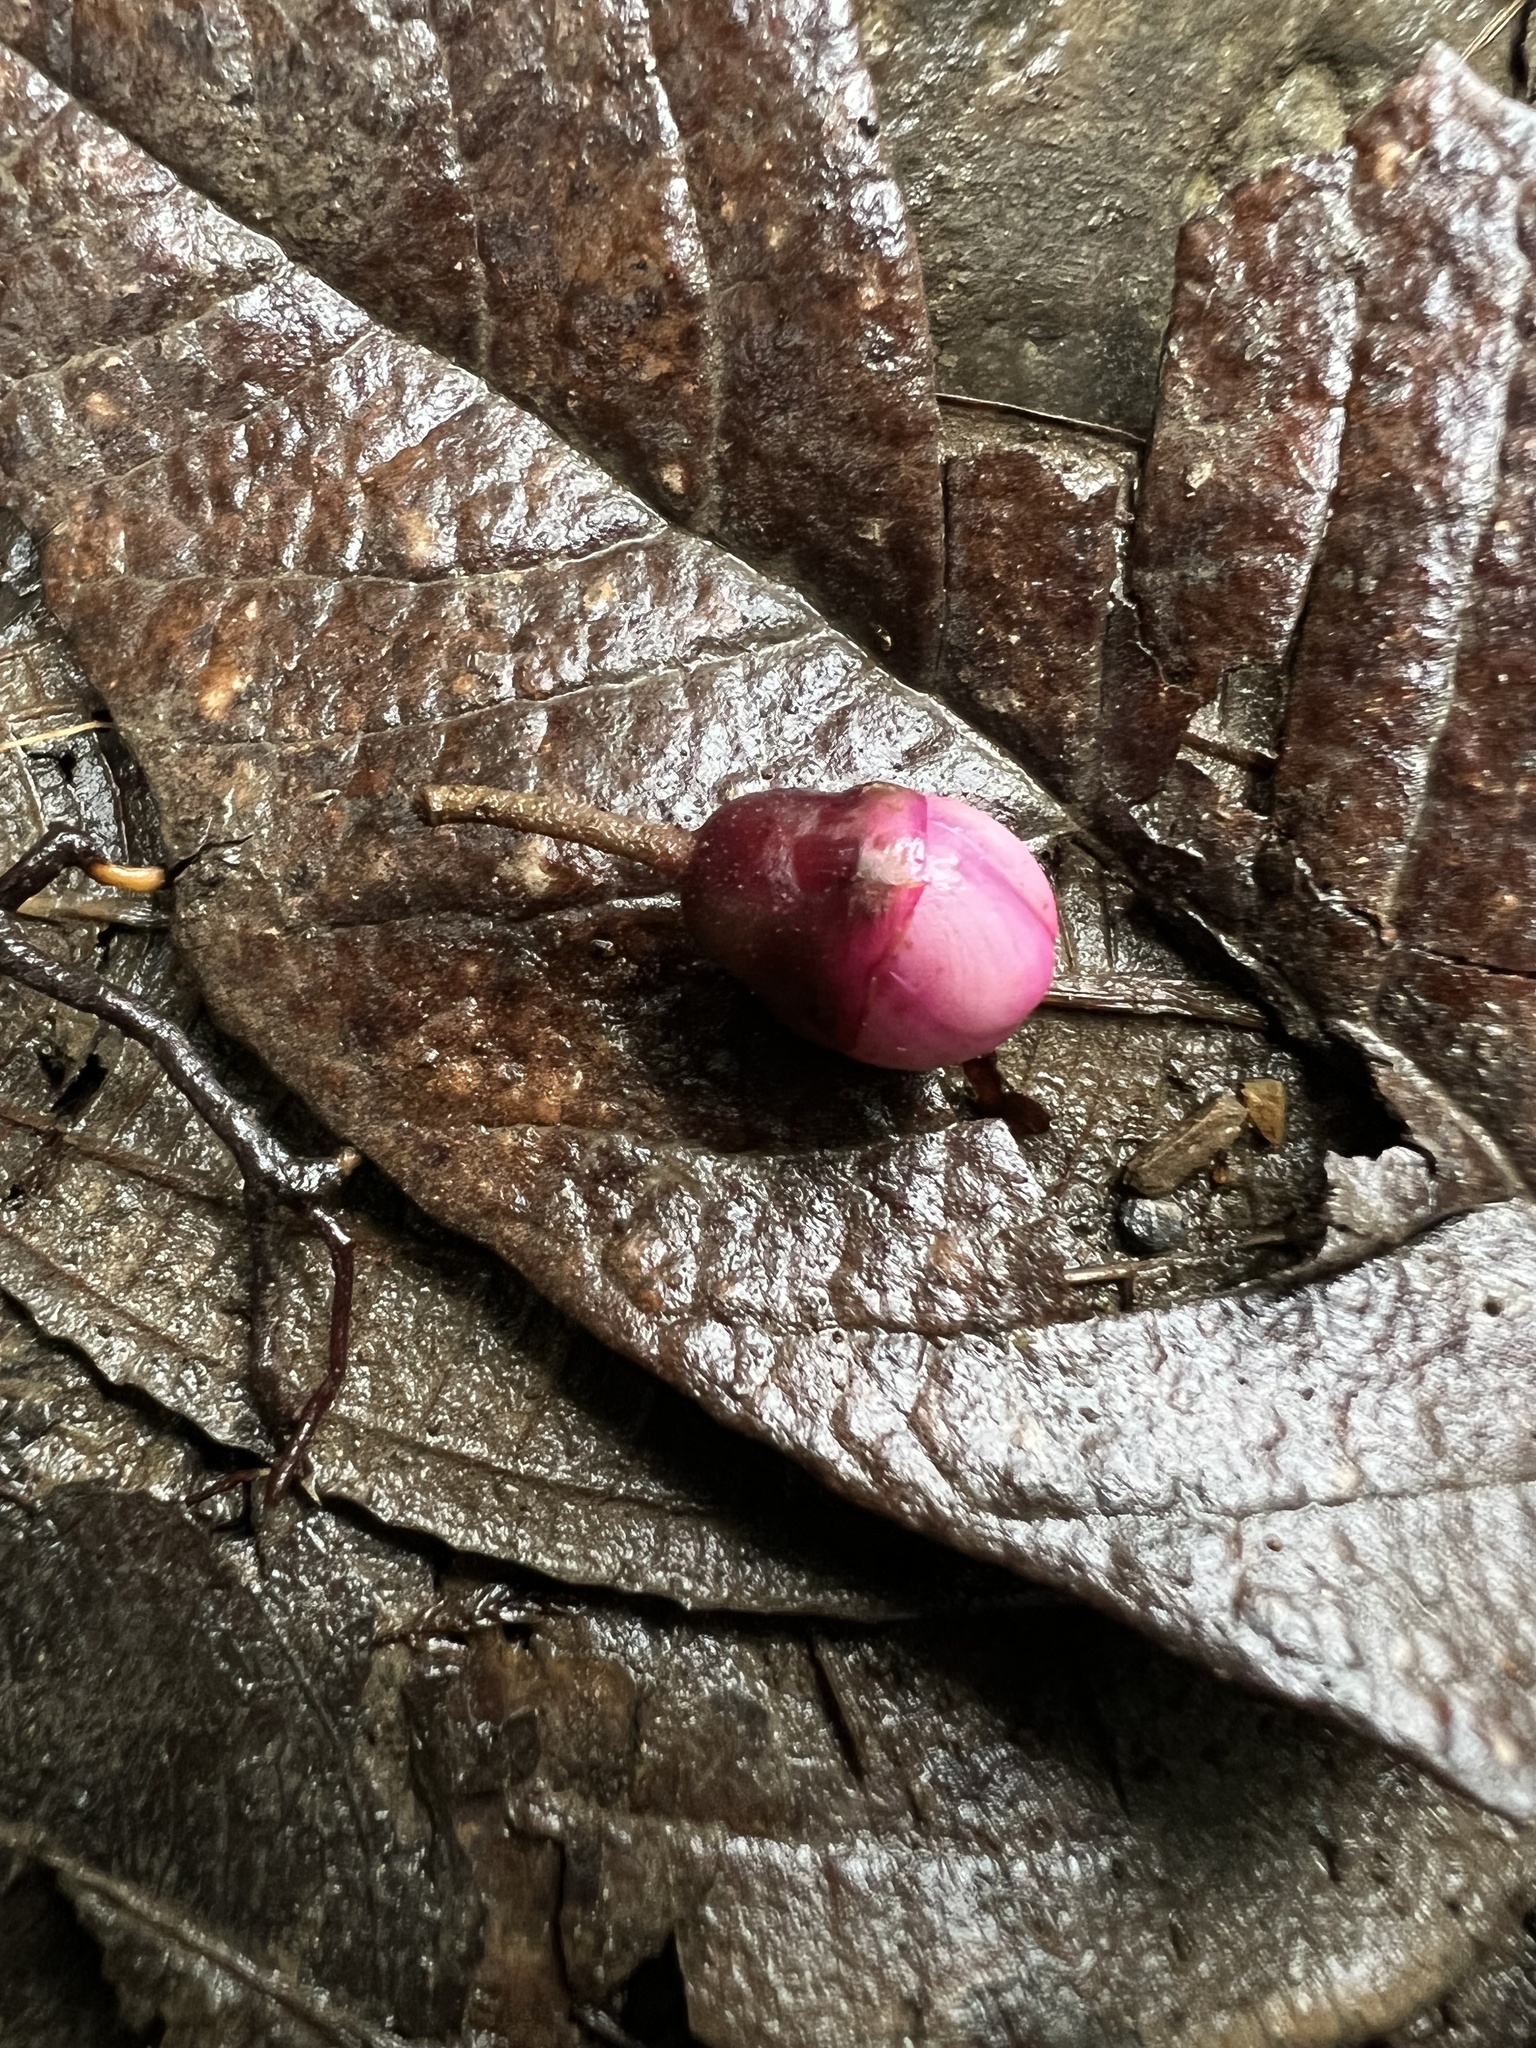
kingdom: Plantae
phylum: Tracheophyta
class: Magnoliopsida
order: Myrtales
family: Melastomataceae
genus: Axinaea
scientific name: Axinaea macrophylla
